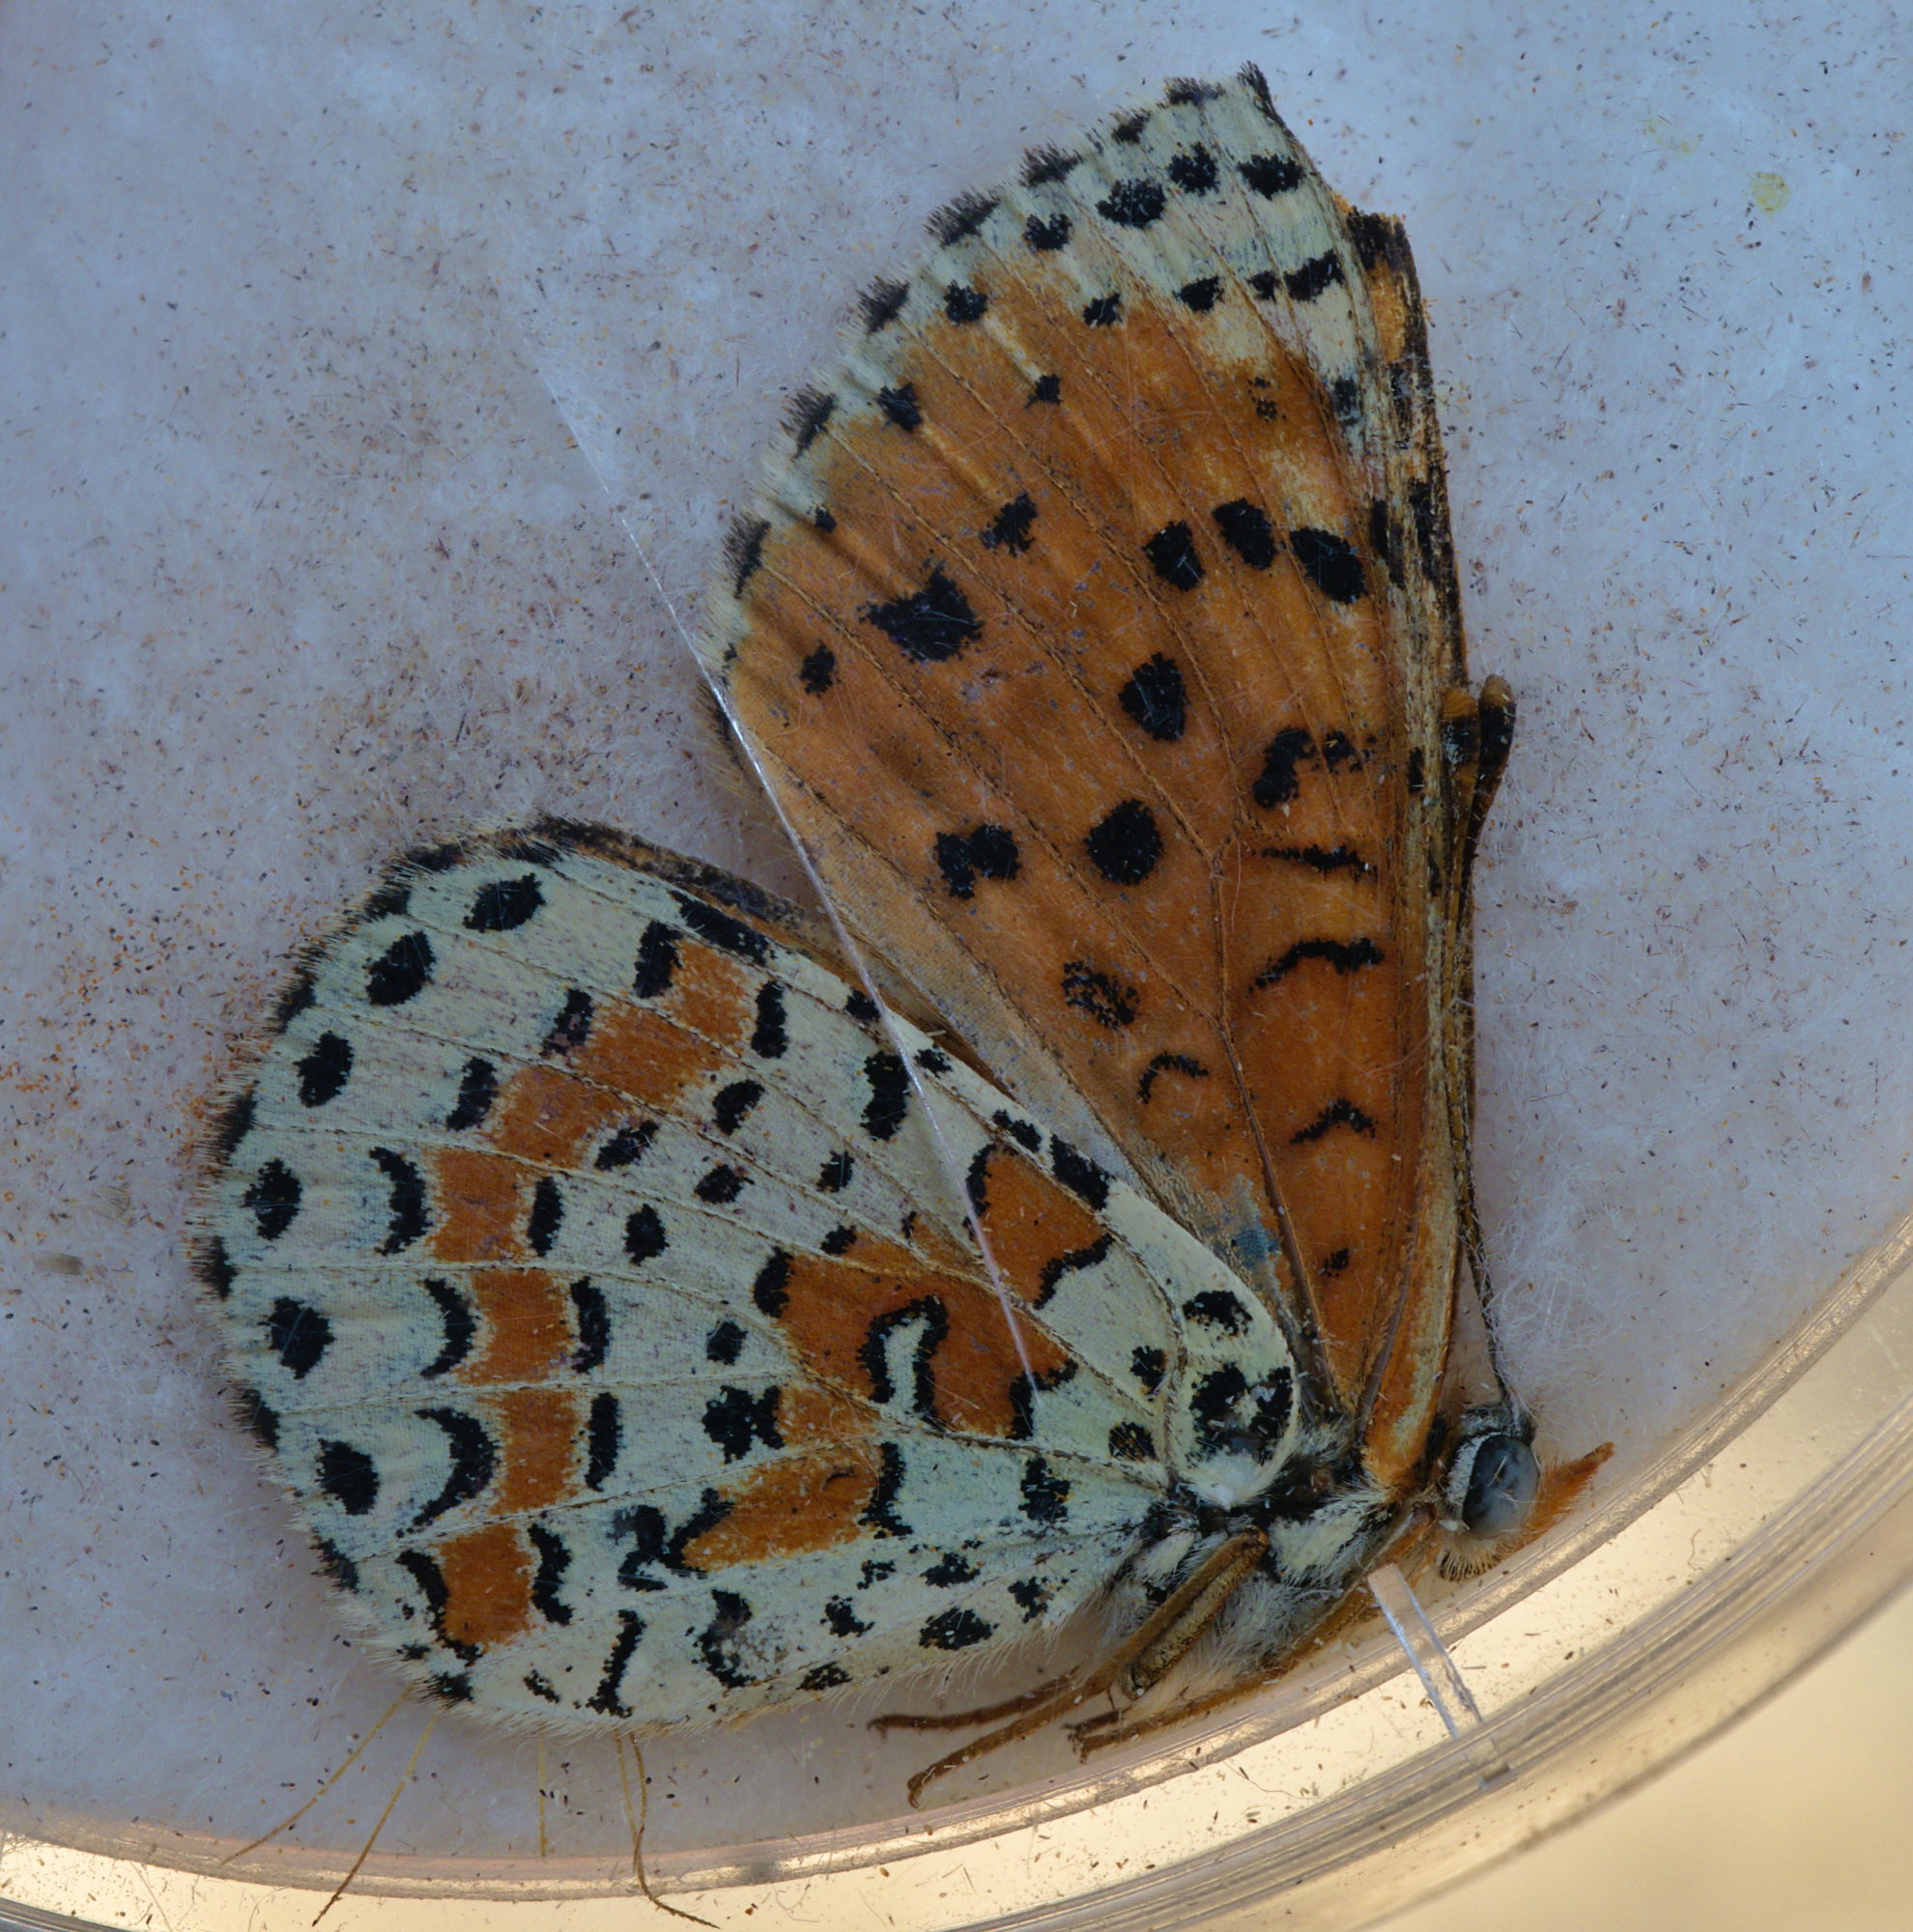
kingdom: Animalia
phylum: Arthropoda
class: Insecta
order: Lepidoptera
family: Nymphalidae
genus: Melitaea
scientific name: Melitaea didyma
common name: Spotted fritillary
